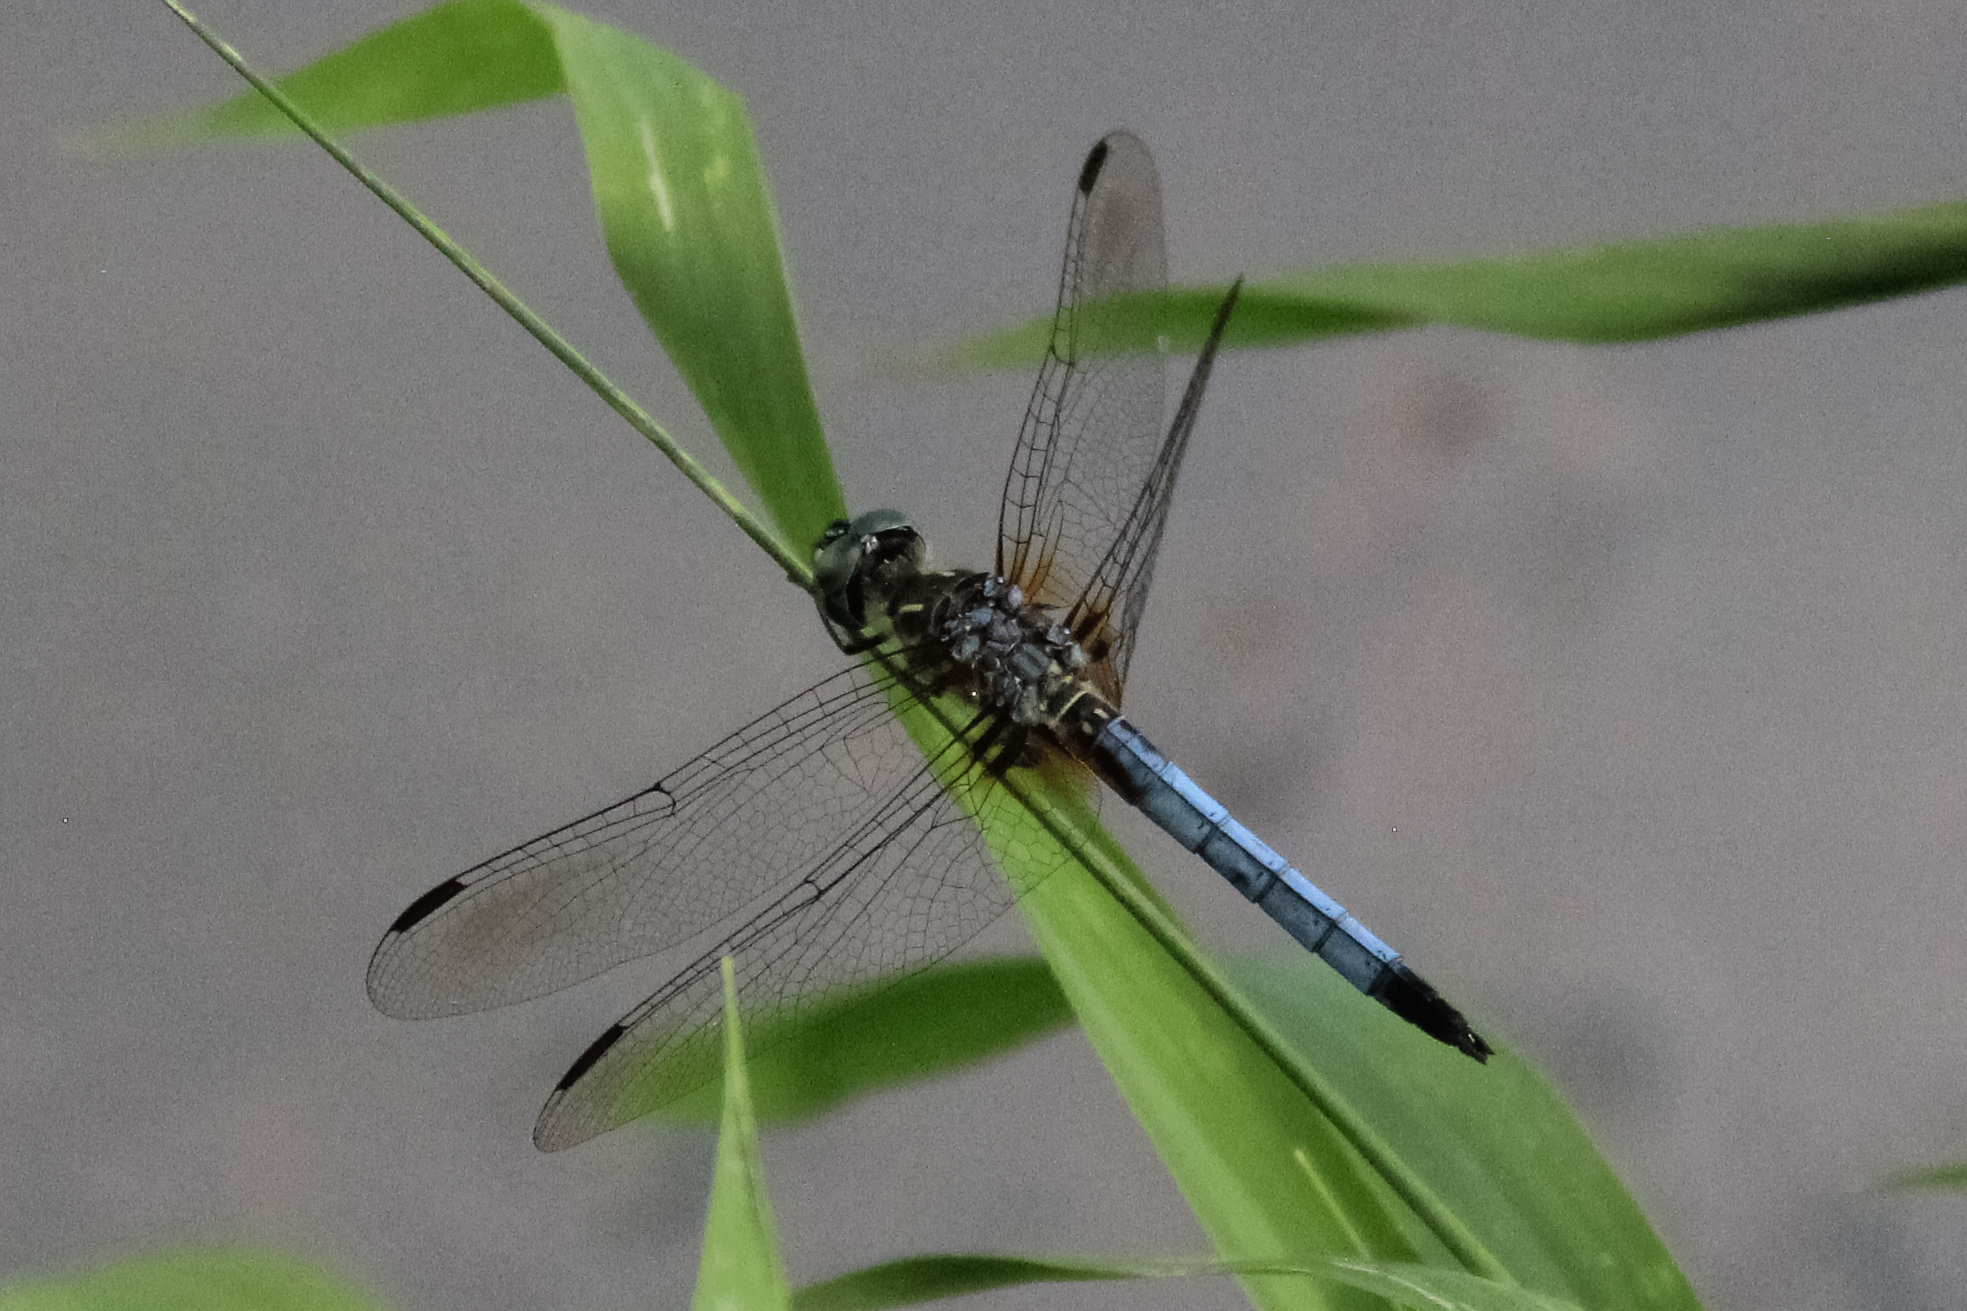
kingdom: Animalia
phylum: Arthropoda
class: Insecta
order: Odonata
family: Libellulidae
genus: Pachydiplax
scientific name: Pachydiplax longipennis
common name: Blue dasher
